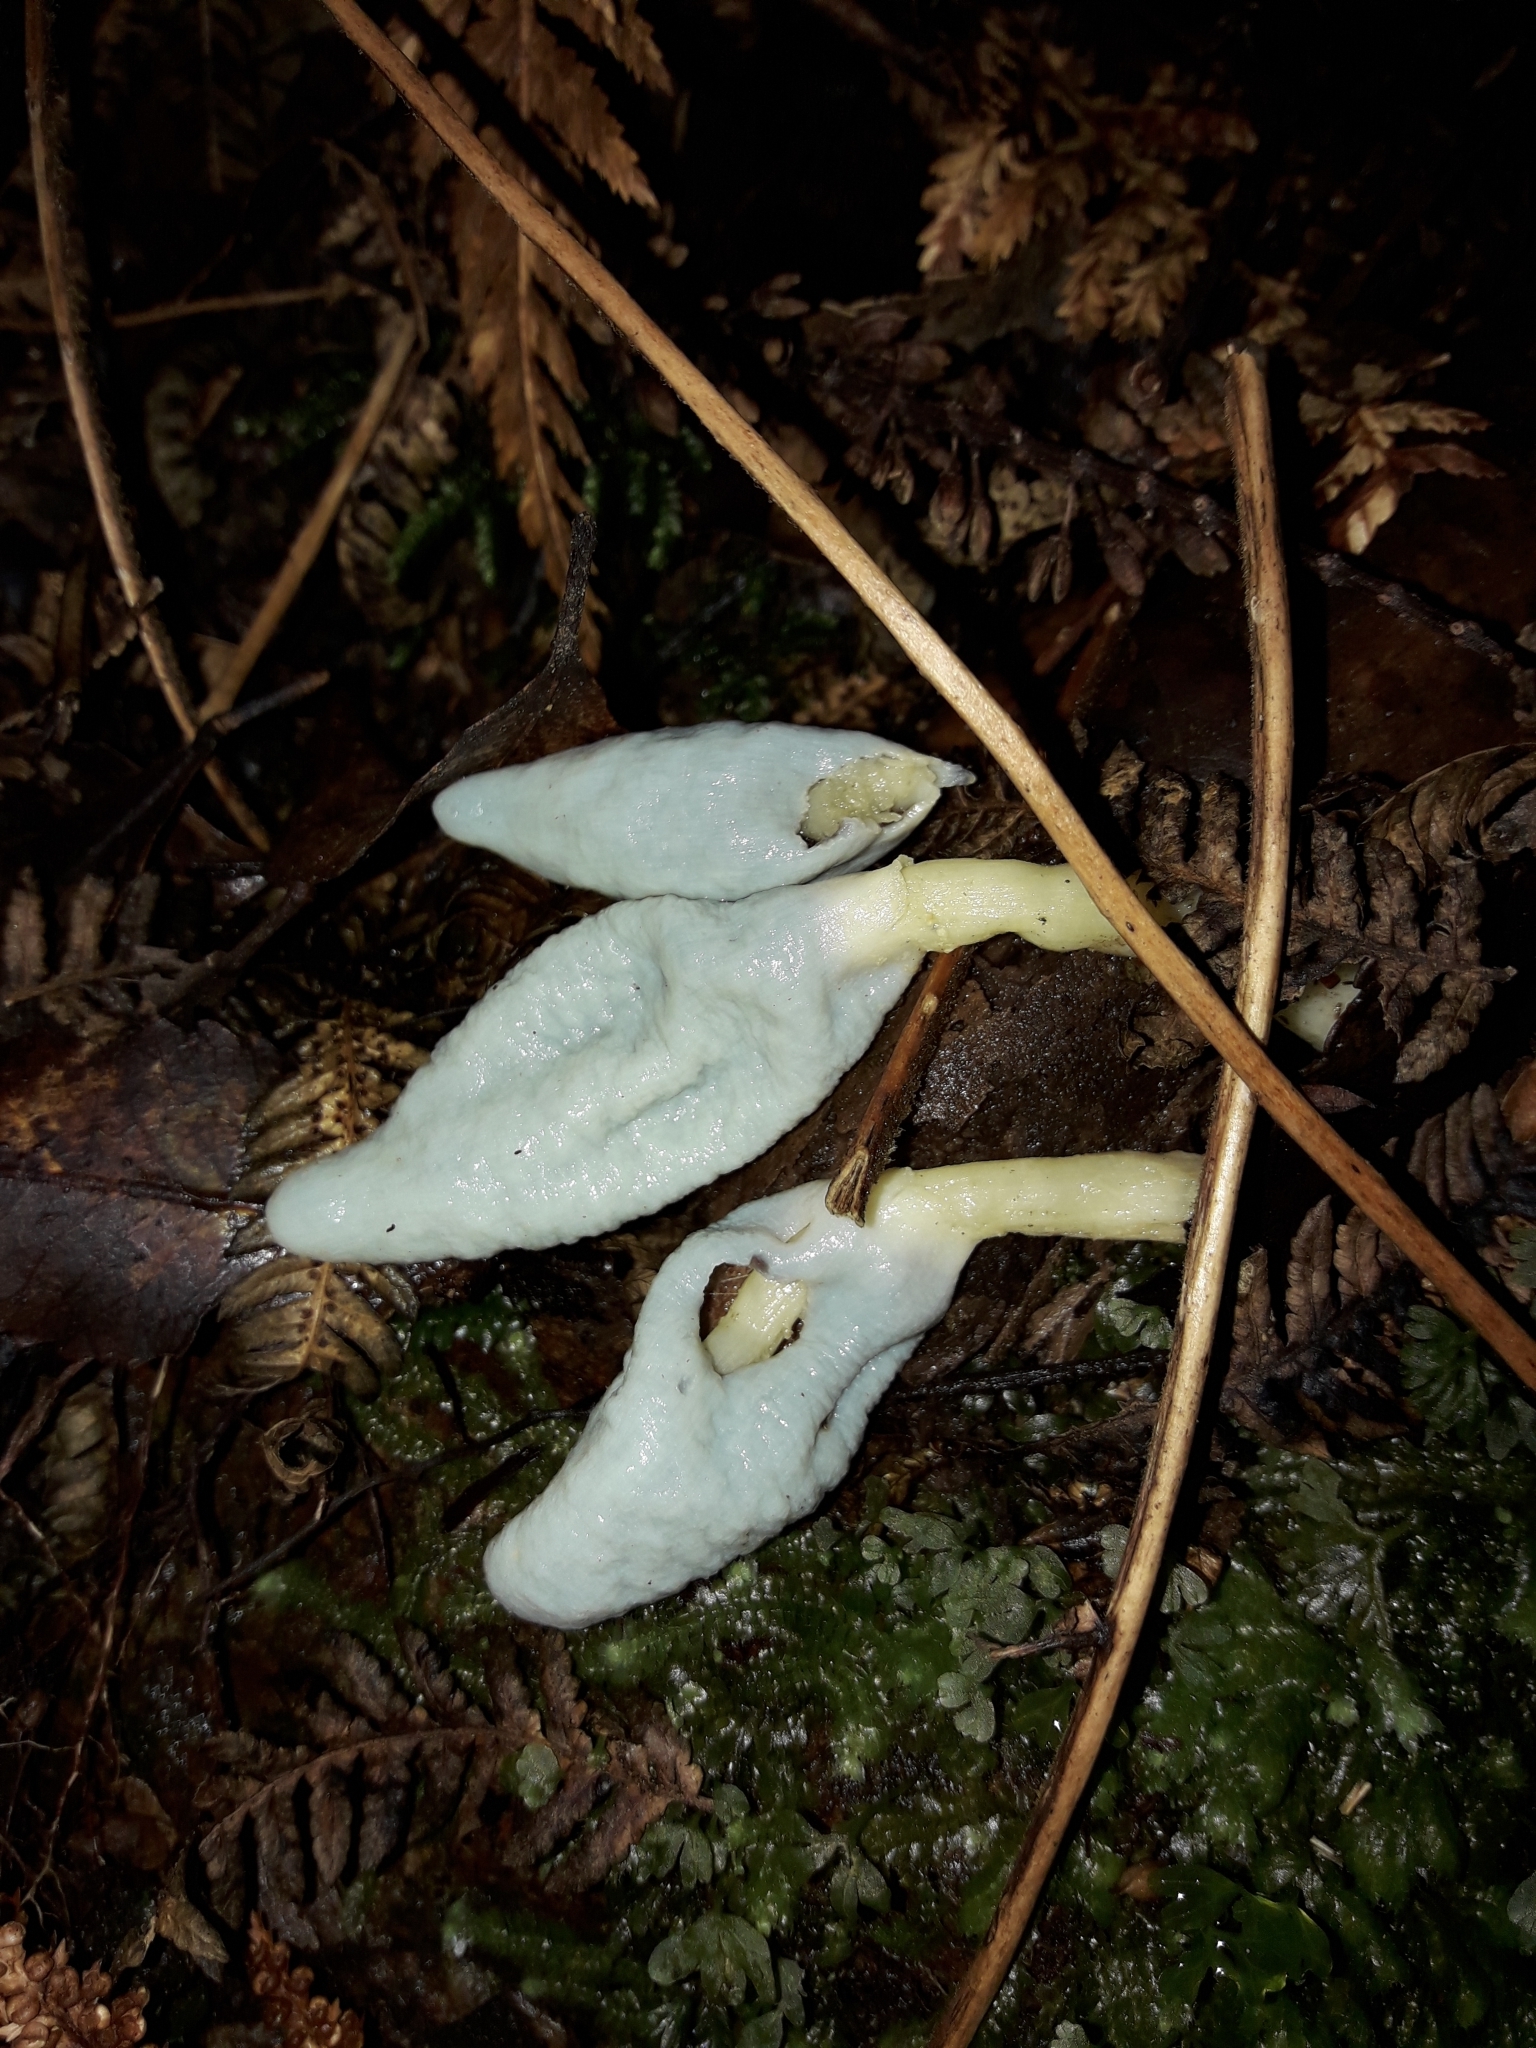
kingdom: Fungi
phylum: Basidiomycota
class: Agaricomycetes
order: Agaricales
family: Agaricaceae
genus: Clavogaster
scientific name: Clavogaster virescens
